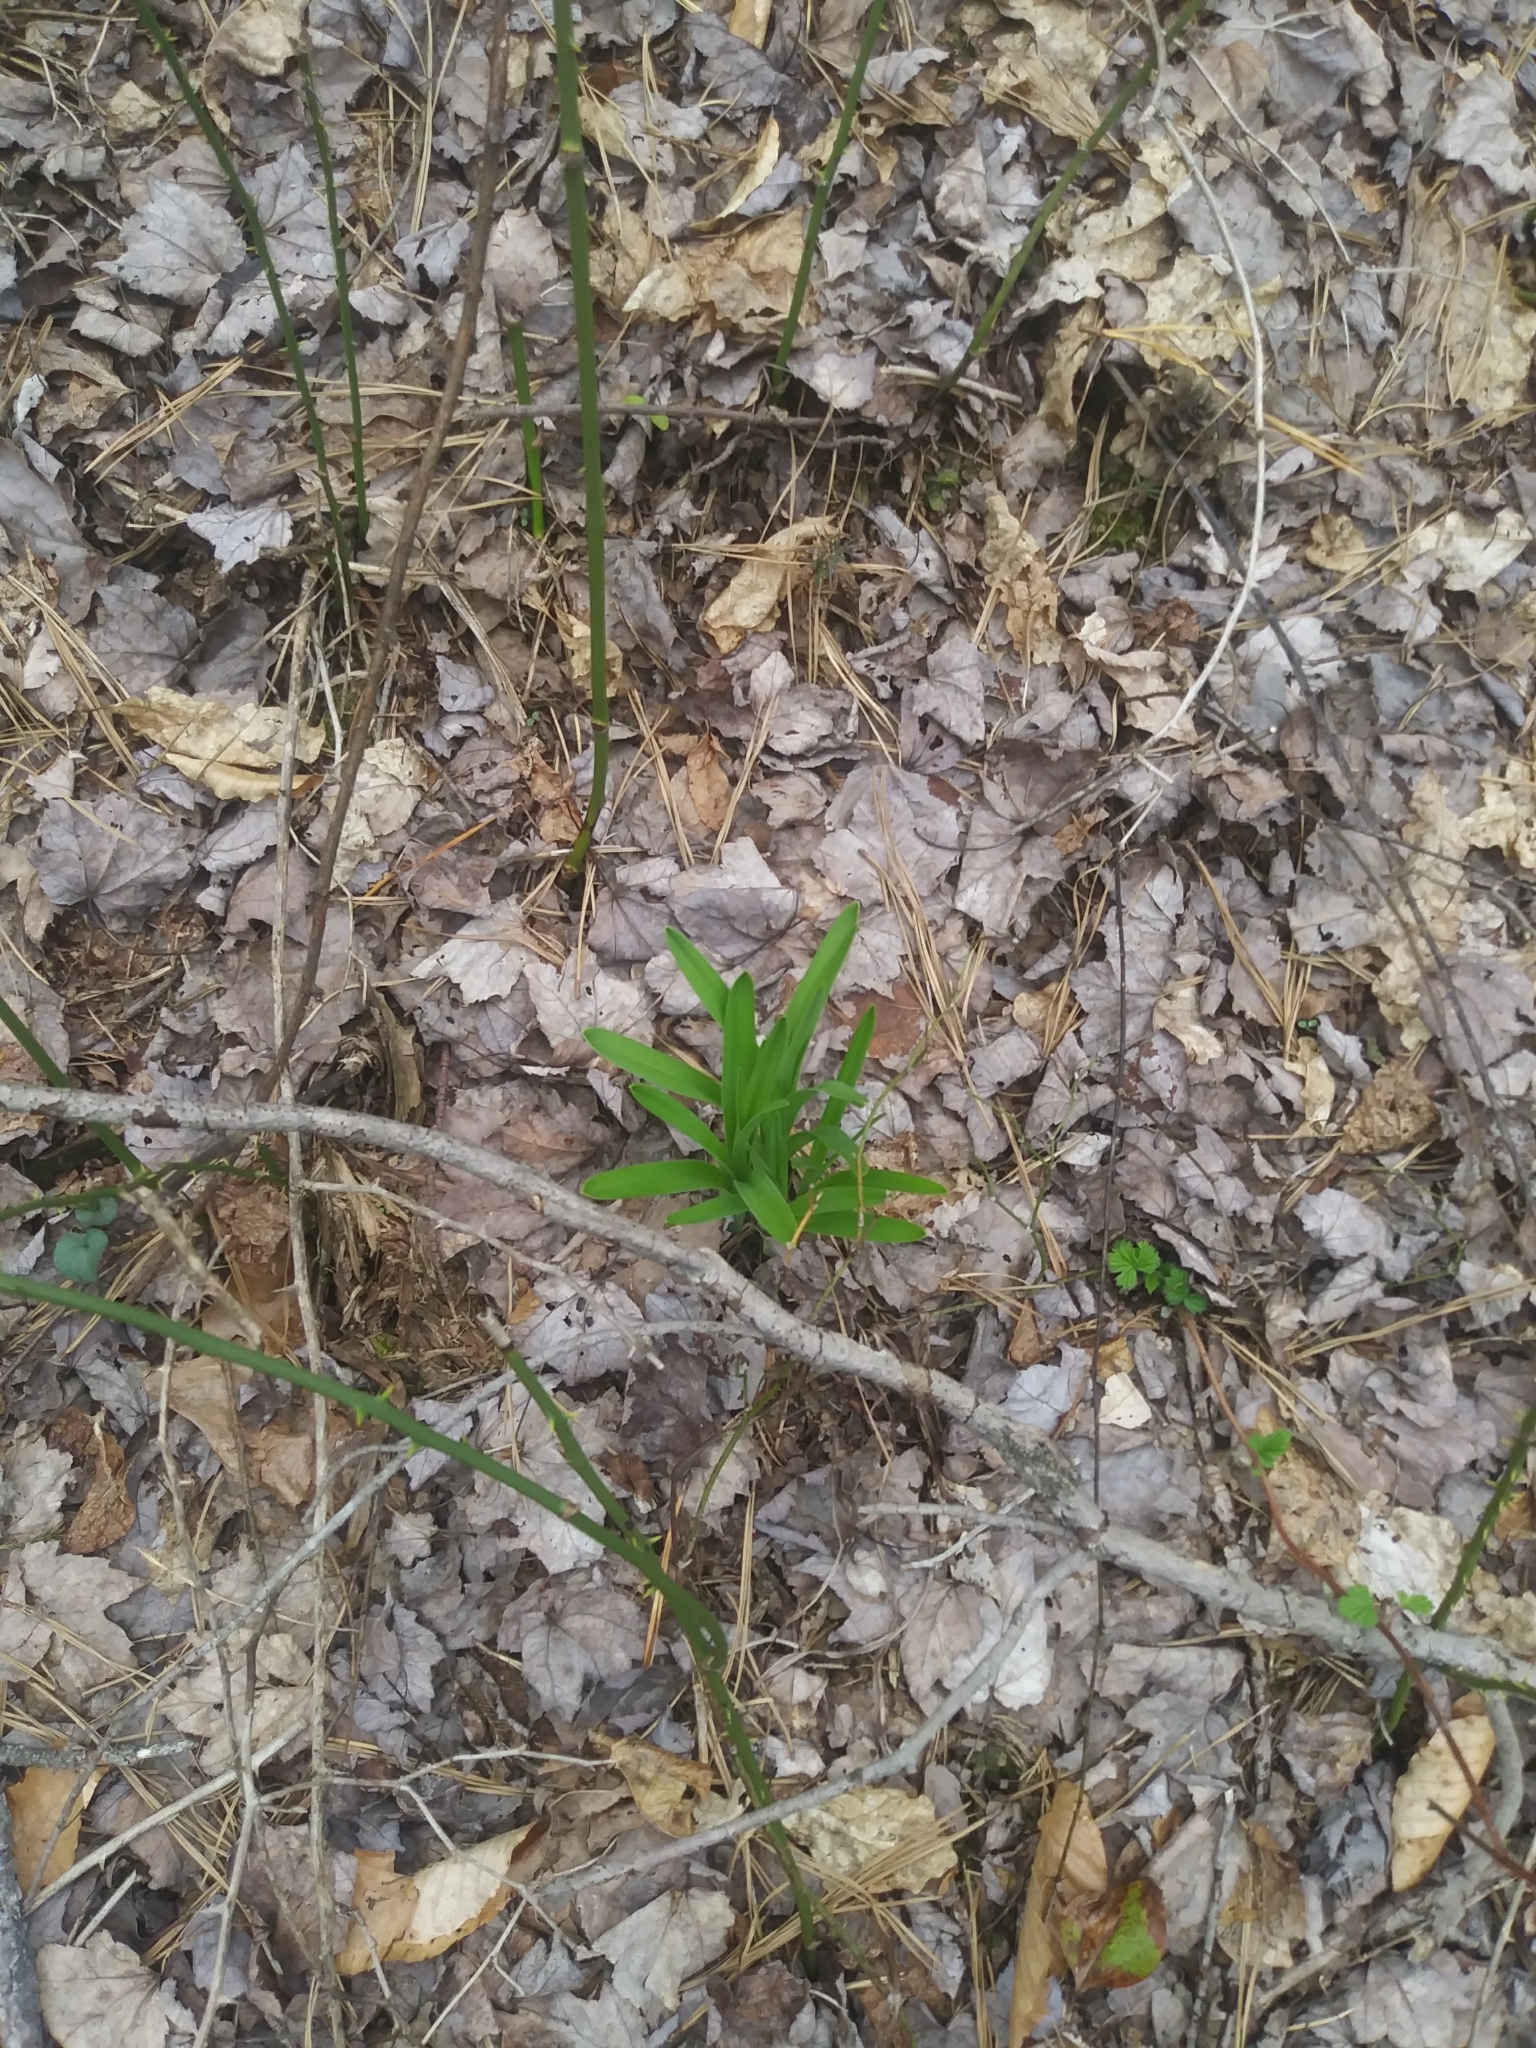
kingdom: Plantae
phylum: Tracheophyta
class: Liliopsida
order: Liliales
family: Melanthiaceae
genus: Amianthium
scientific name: Amianthium muscitoxicum
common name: Fly-poison
